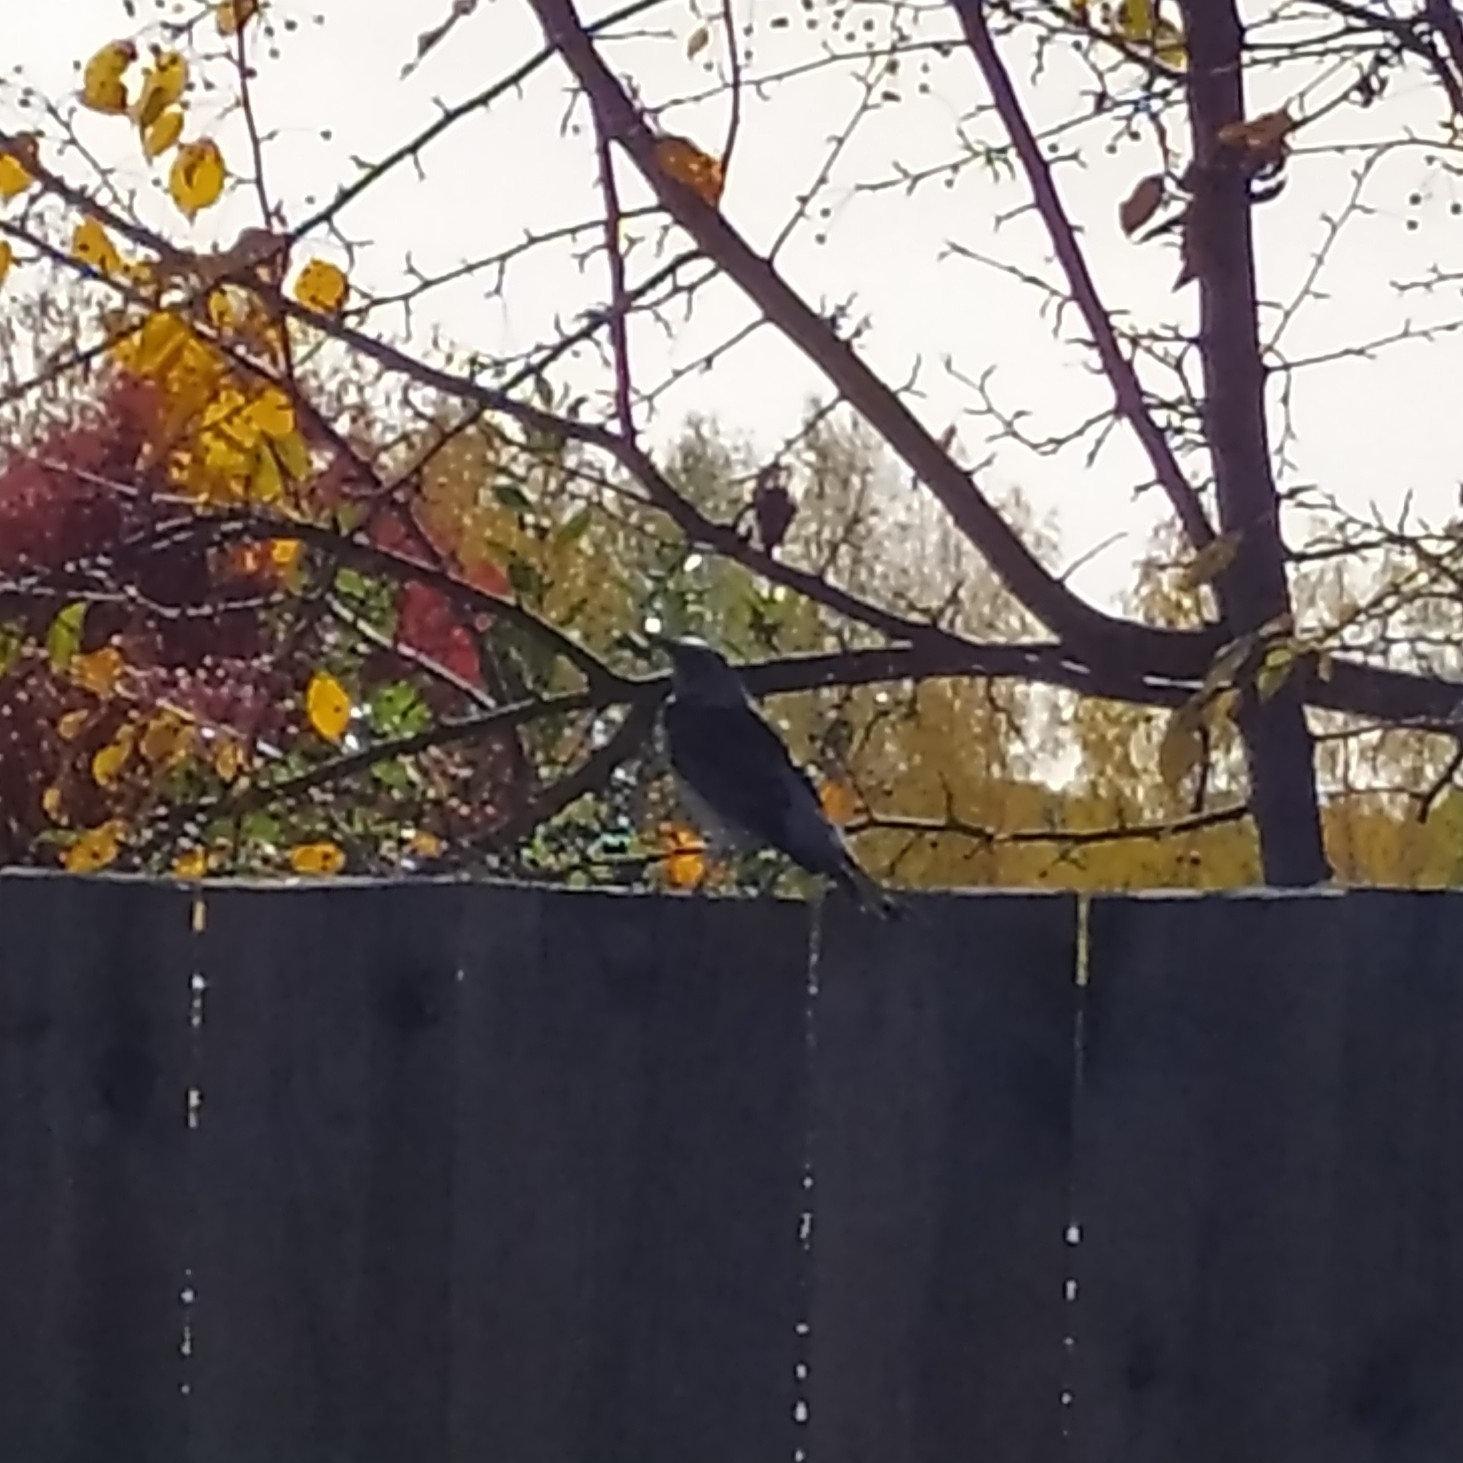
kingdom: Animalia
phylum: Chordata
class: Aves
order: Passeriformes
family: Turdidae
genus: Turdus
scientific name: Turdus pilaris
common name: Fieldfare
